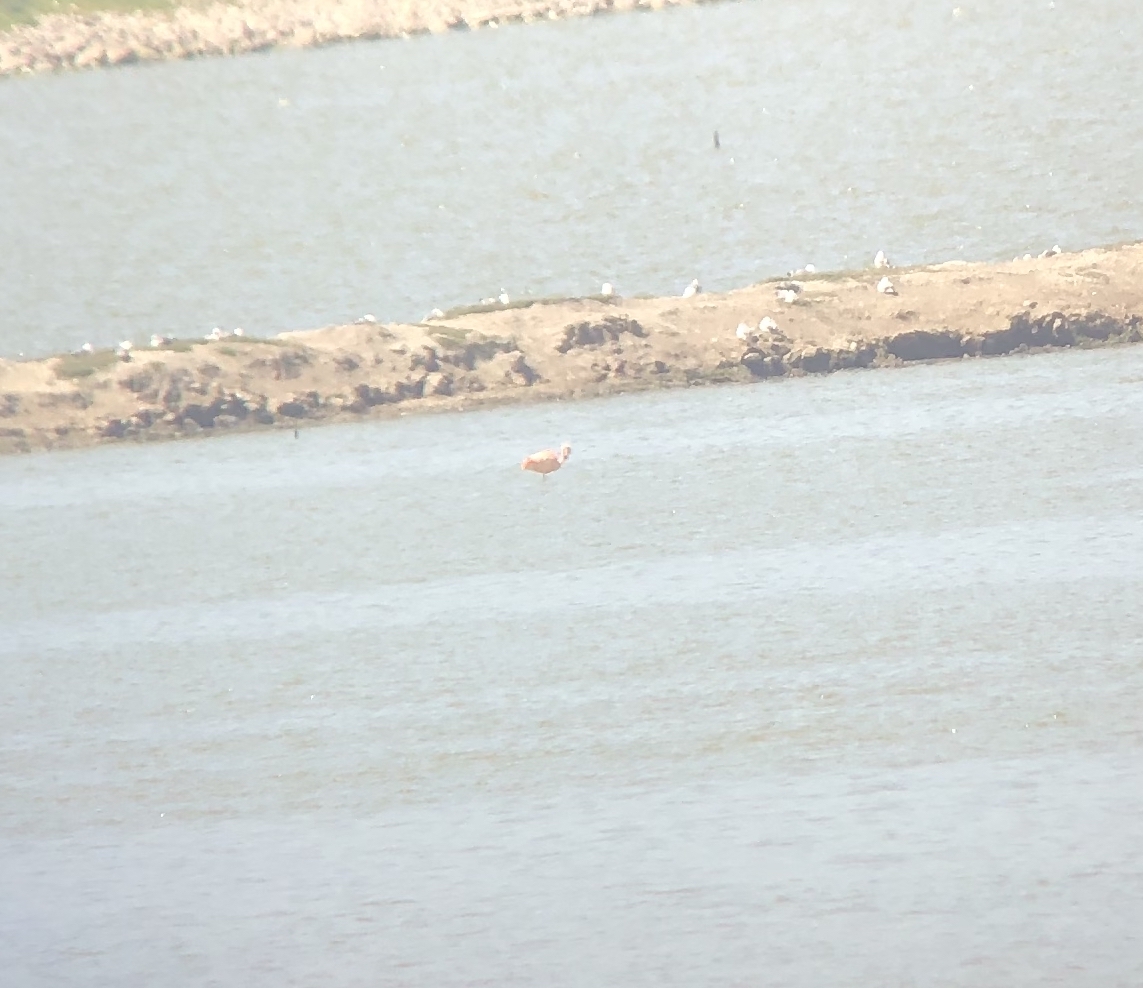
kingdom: Animalia
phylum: Chordata
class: Aves
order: Phoenicopteriformes
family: Phoenicopteridae
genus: Phoenicopterus
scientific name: Phoenicopterus chilensis
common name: Chilean flamingo
